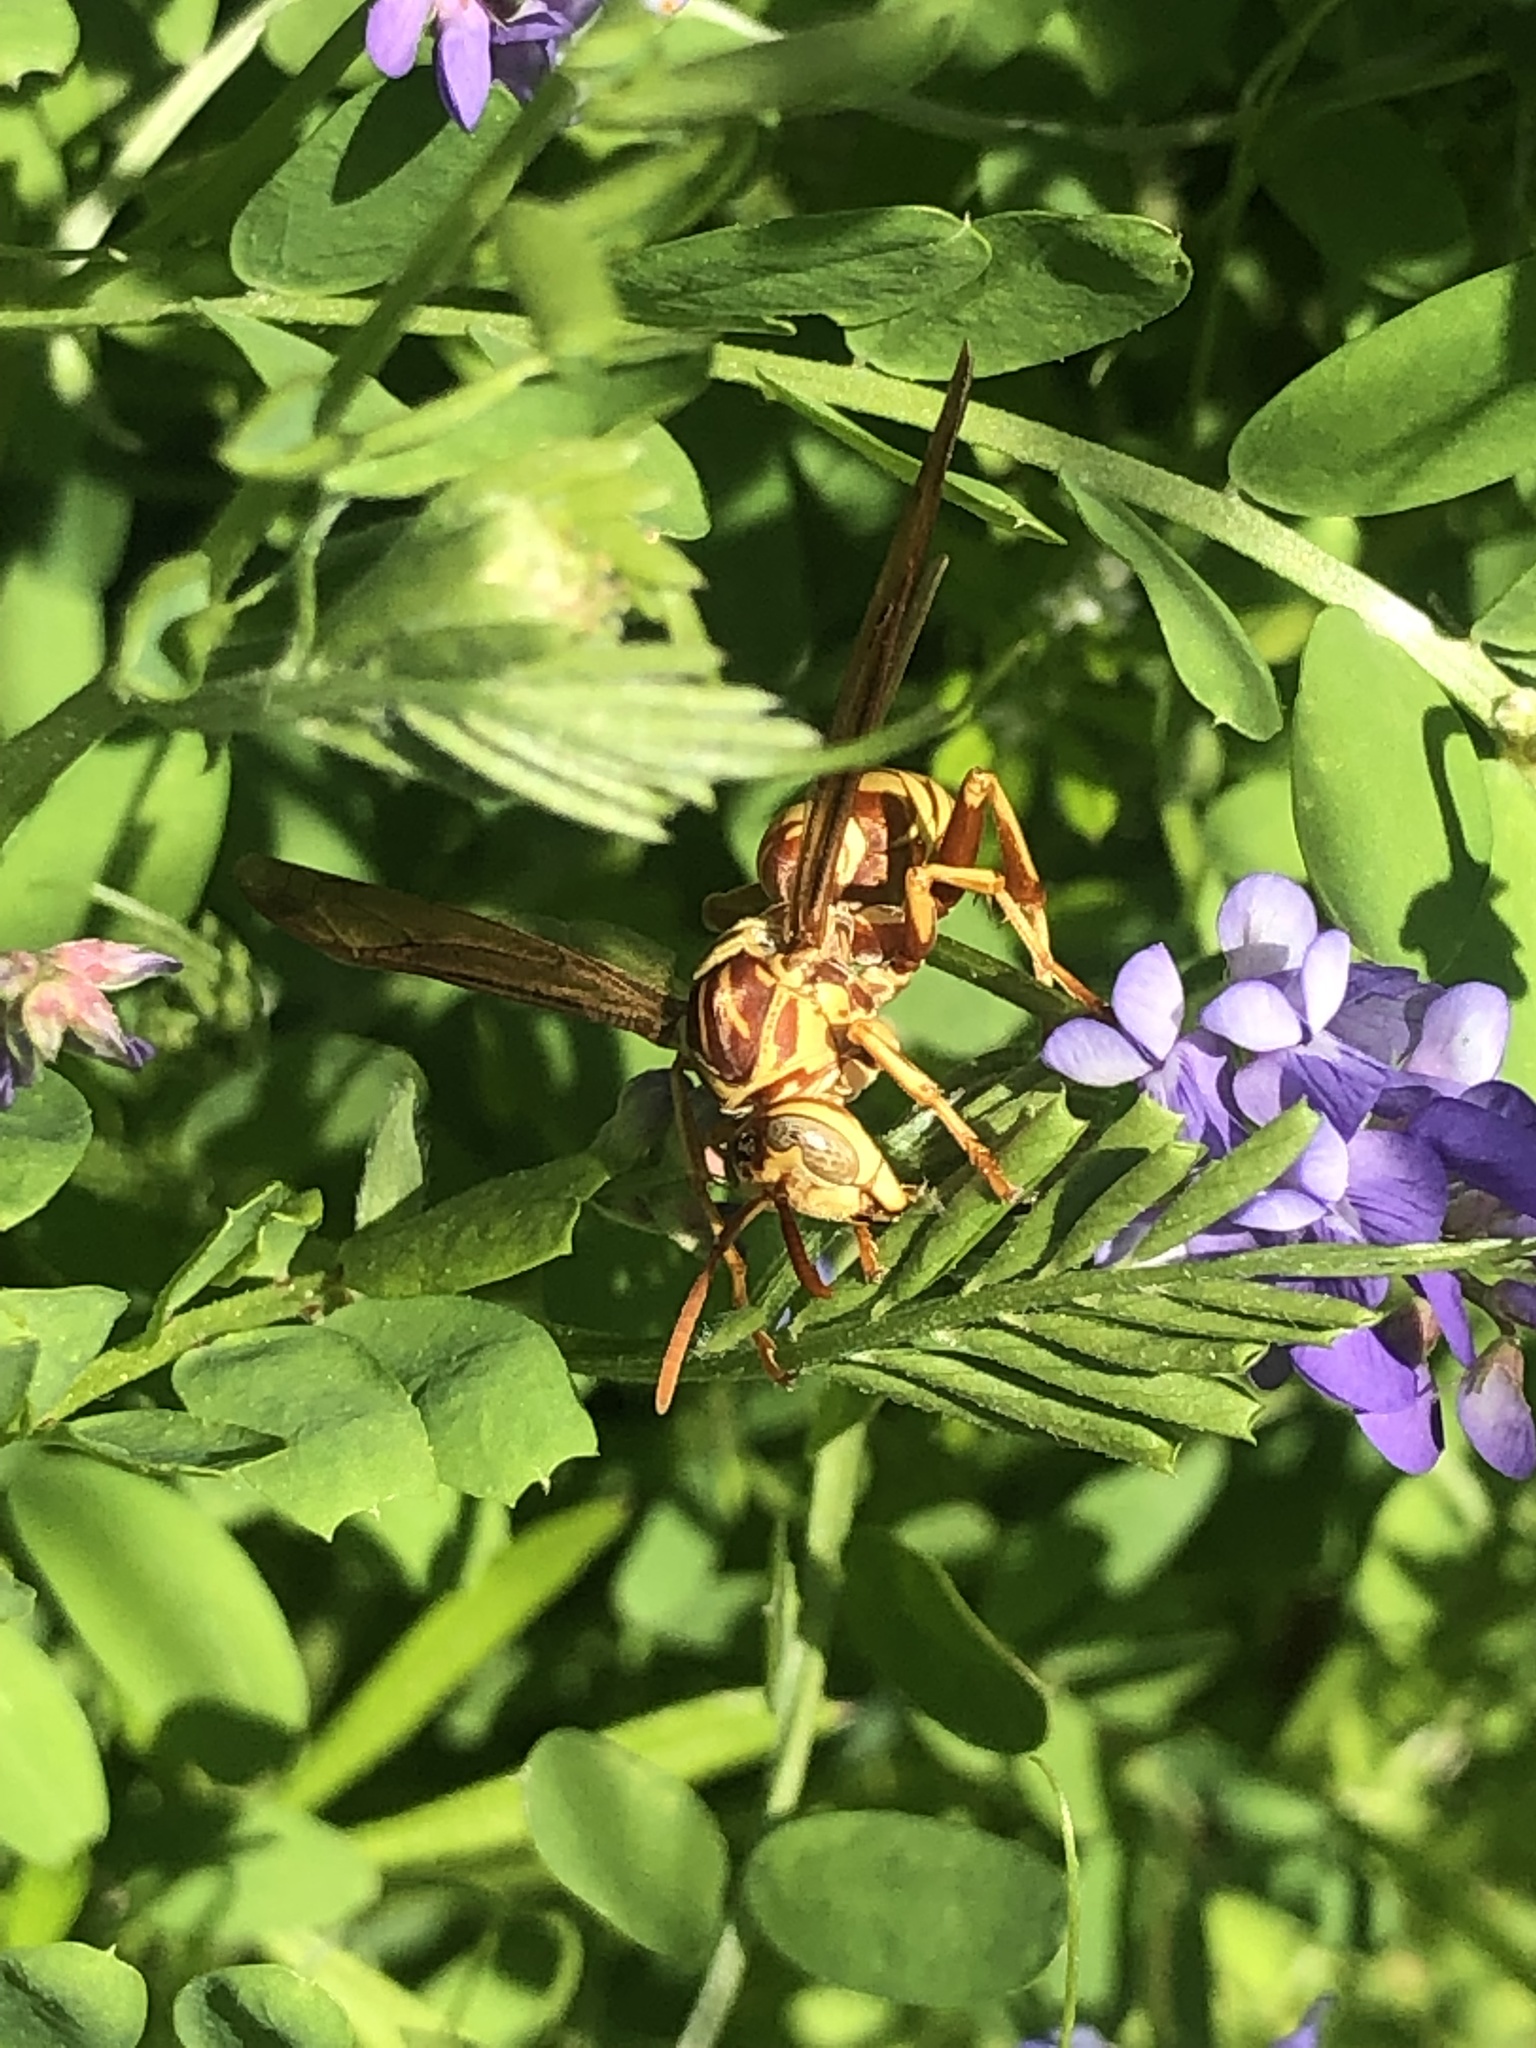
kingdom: Animalia
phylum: Arthropoda
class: Insecta
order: Hymenoptera
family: Eumenidae
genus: Polistes
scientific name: Polistes apachus
